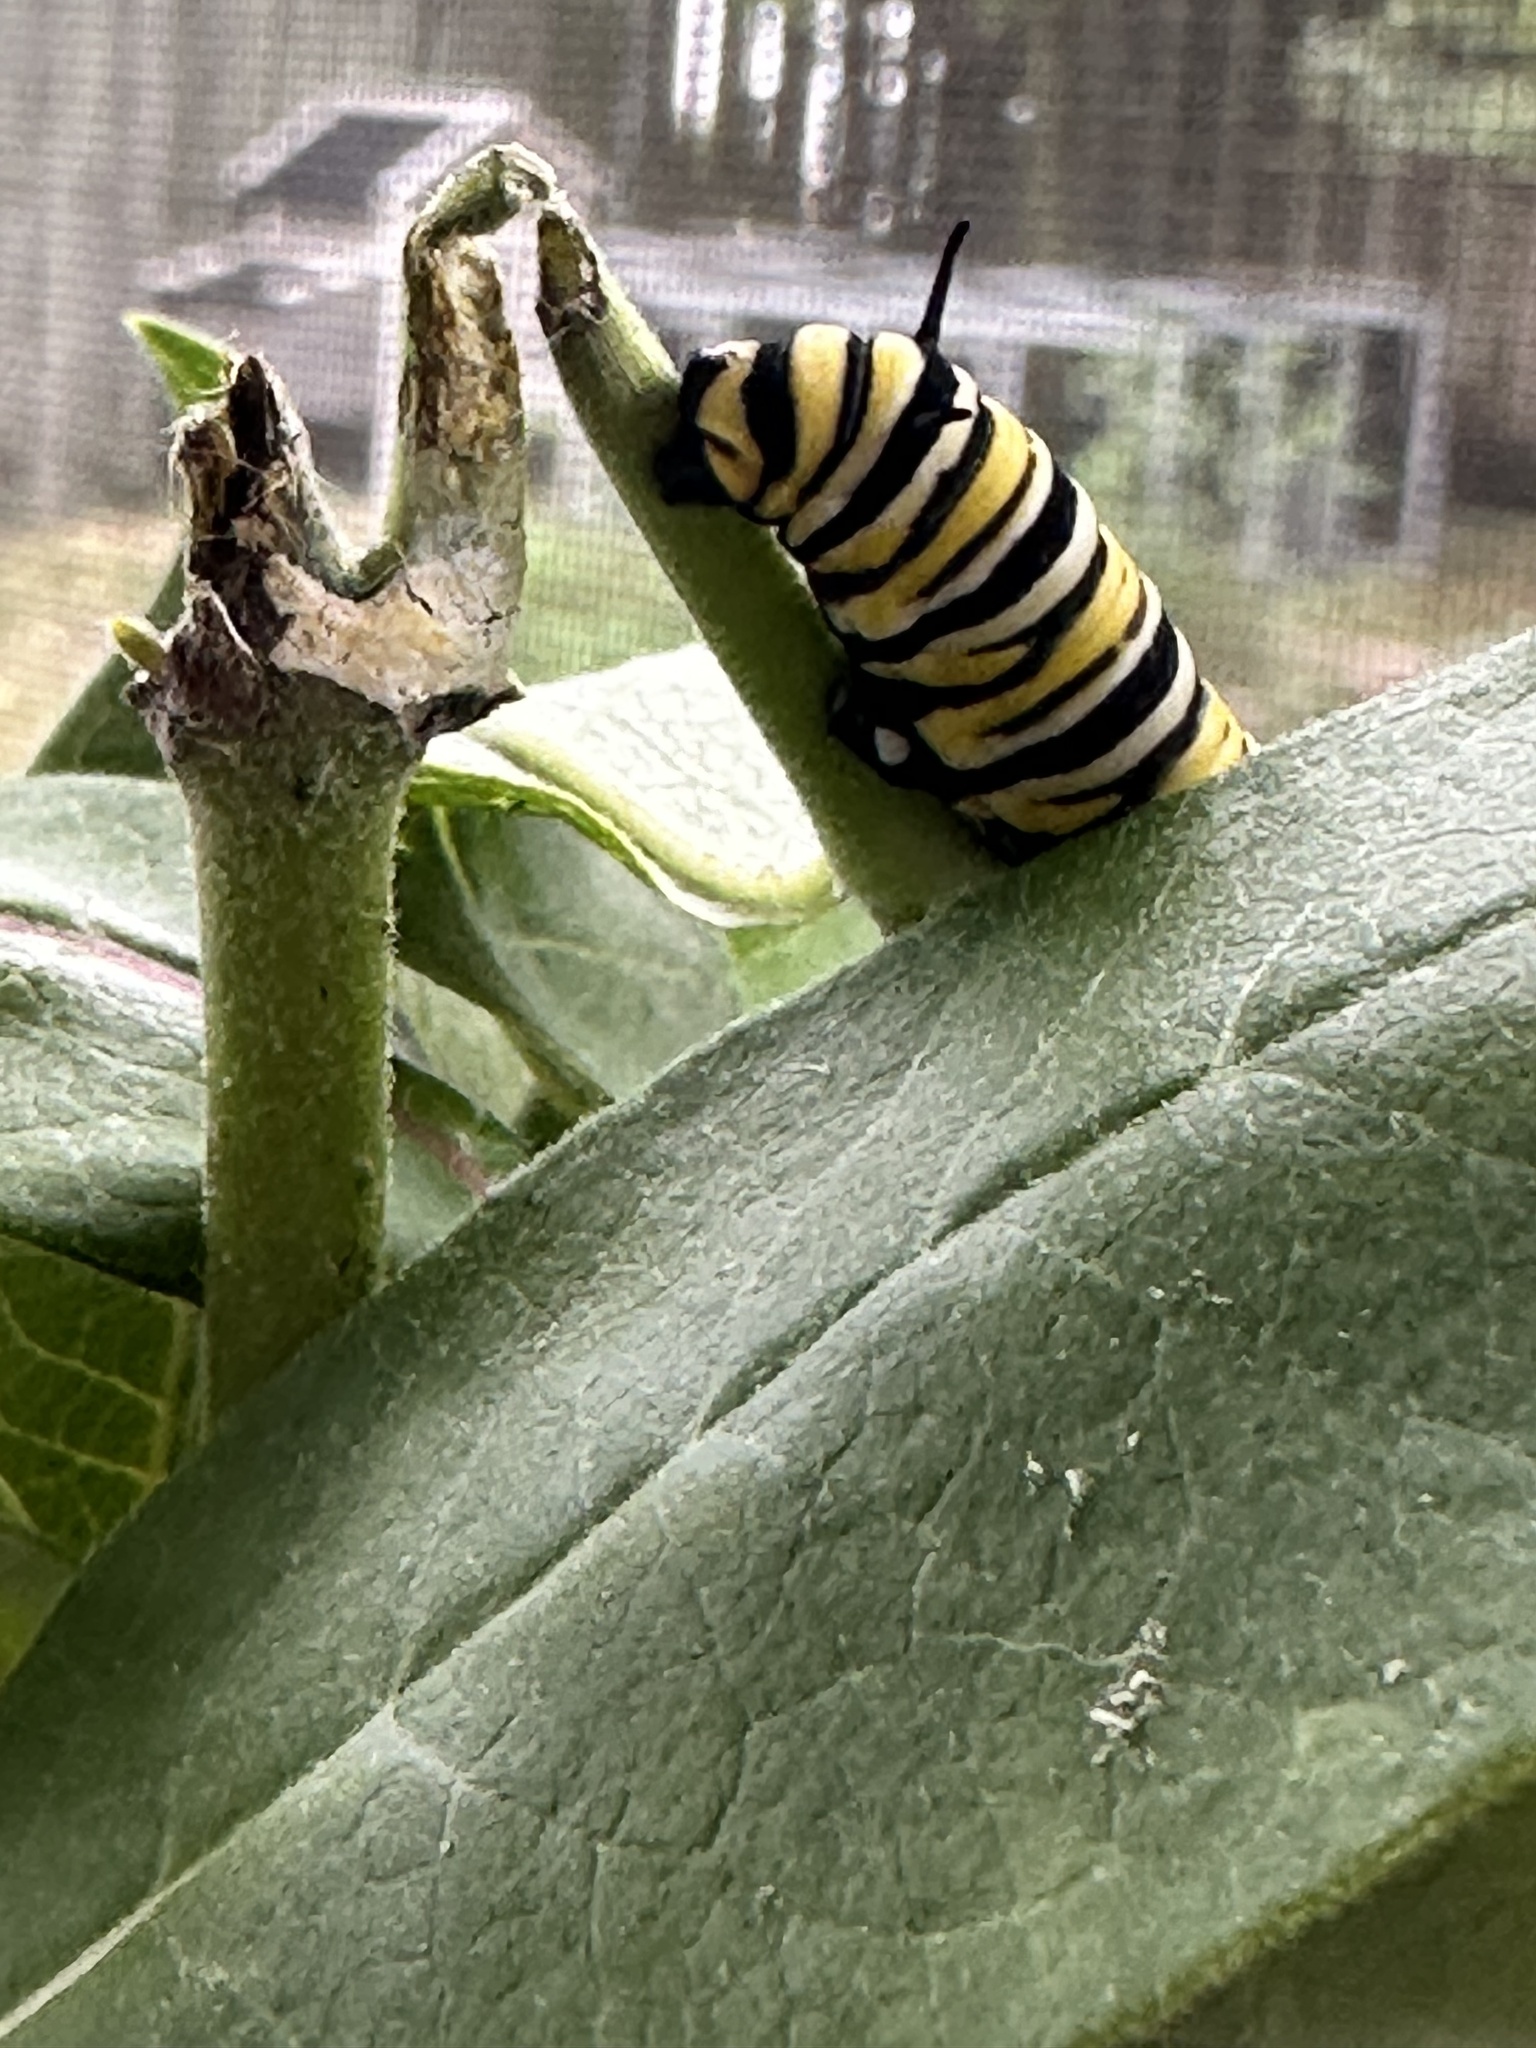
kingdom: Animalia
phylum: Arthropoda
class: Insecta
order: Lepidoptera
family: Nymphalidae
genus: Danaus
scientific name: Danaus plexippus
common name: Monarch
